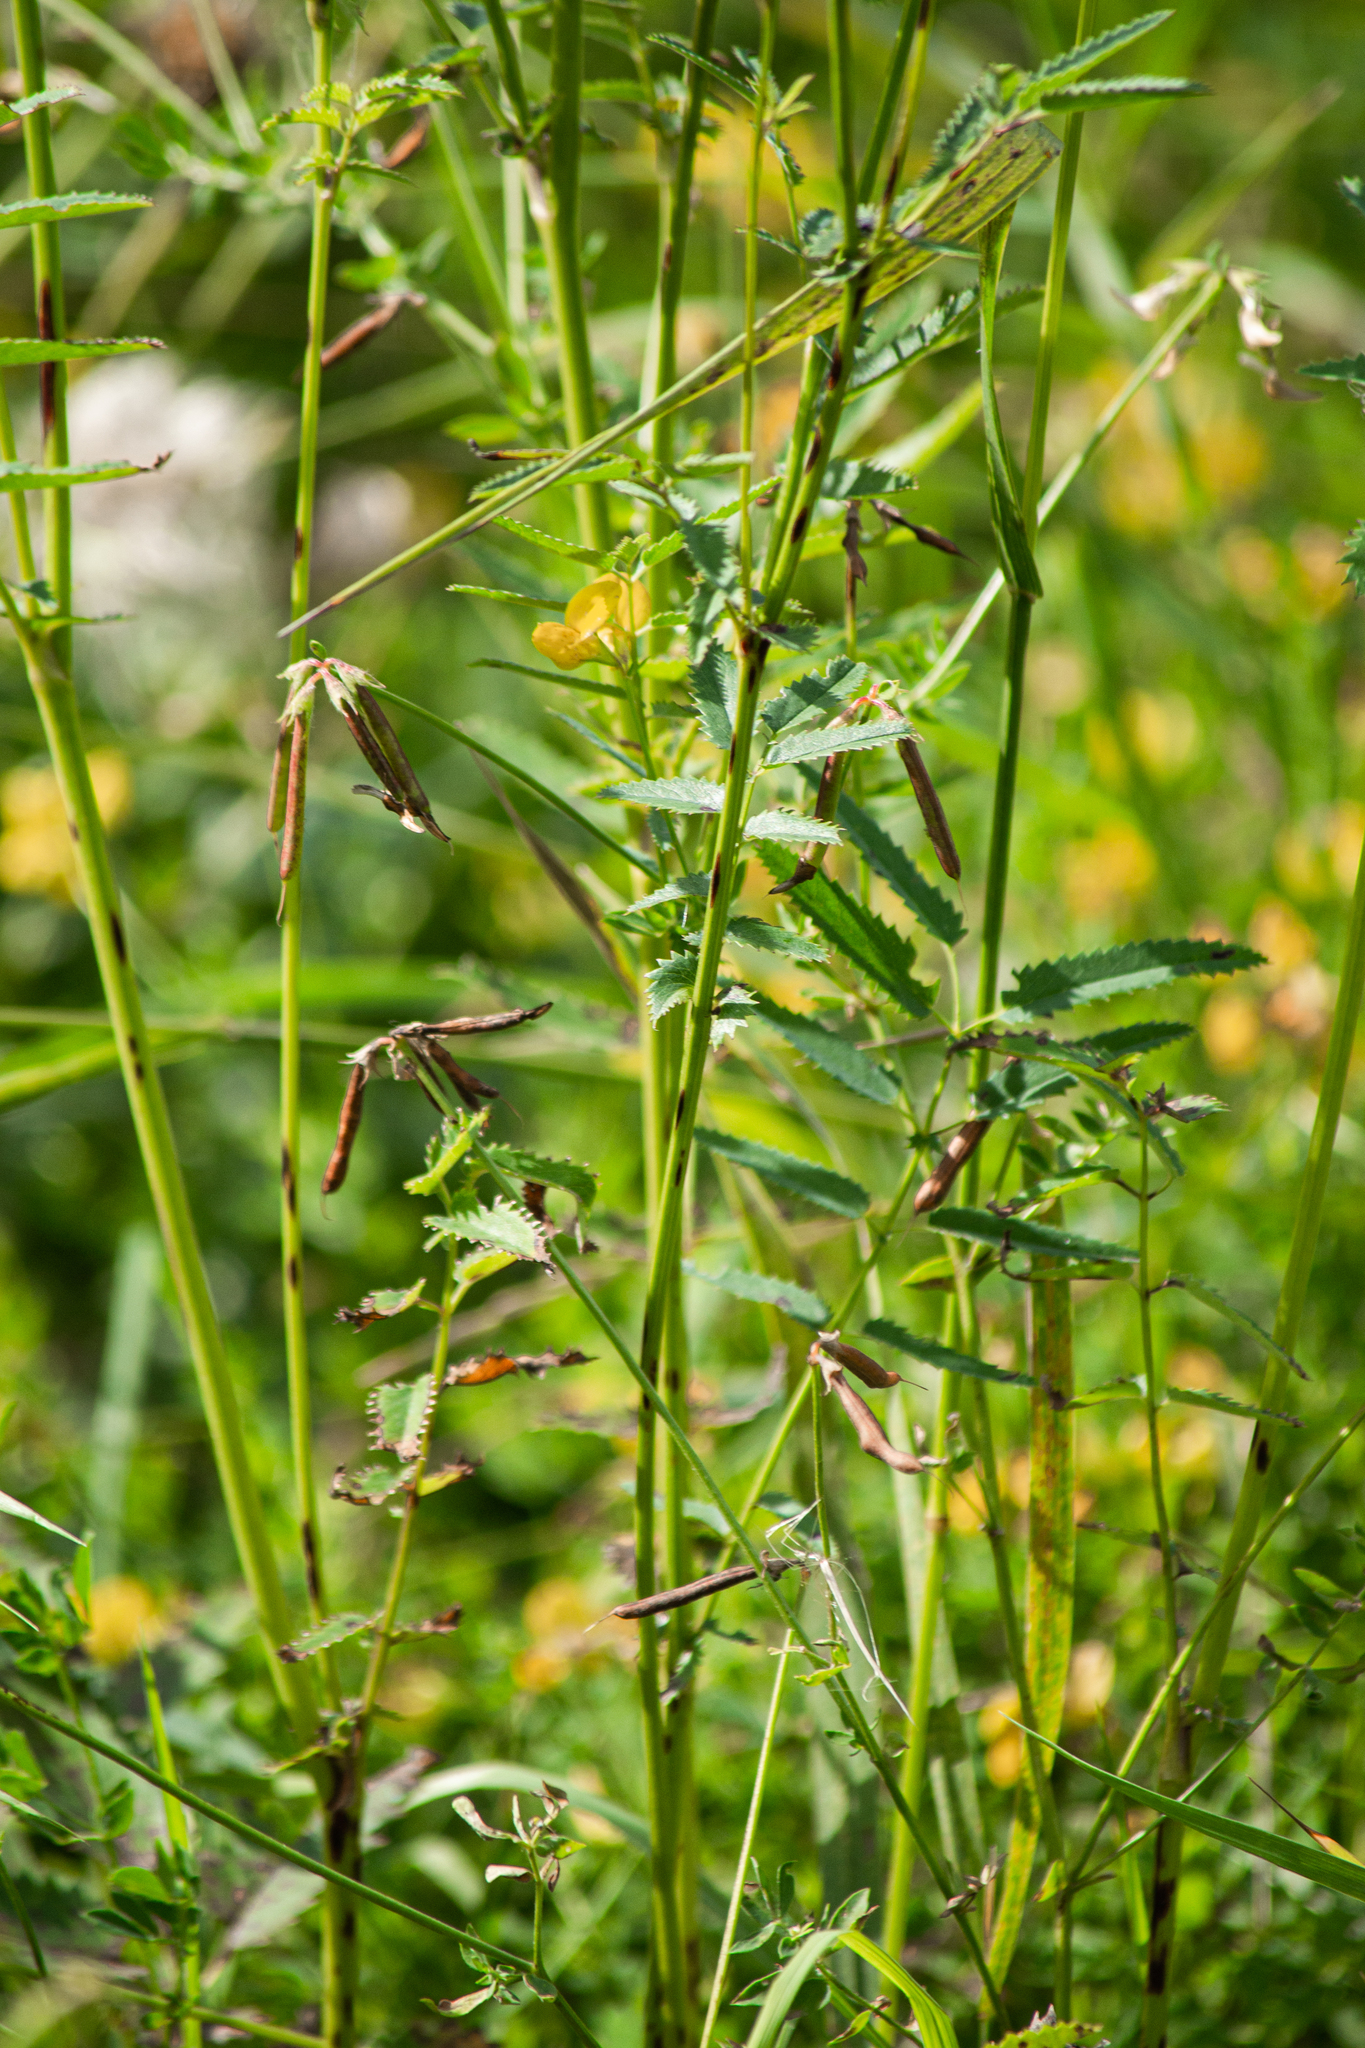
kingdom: Plantae
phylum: Tracheophyta
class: Magnoliopsida
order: Rosales
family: Rosaceae
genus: Sanguisorba
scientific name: Sanguisorba officinalis
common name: Great burnet
